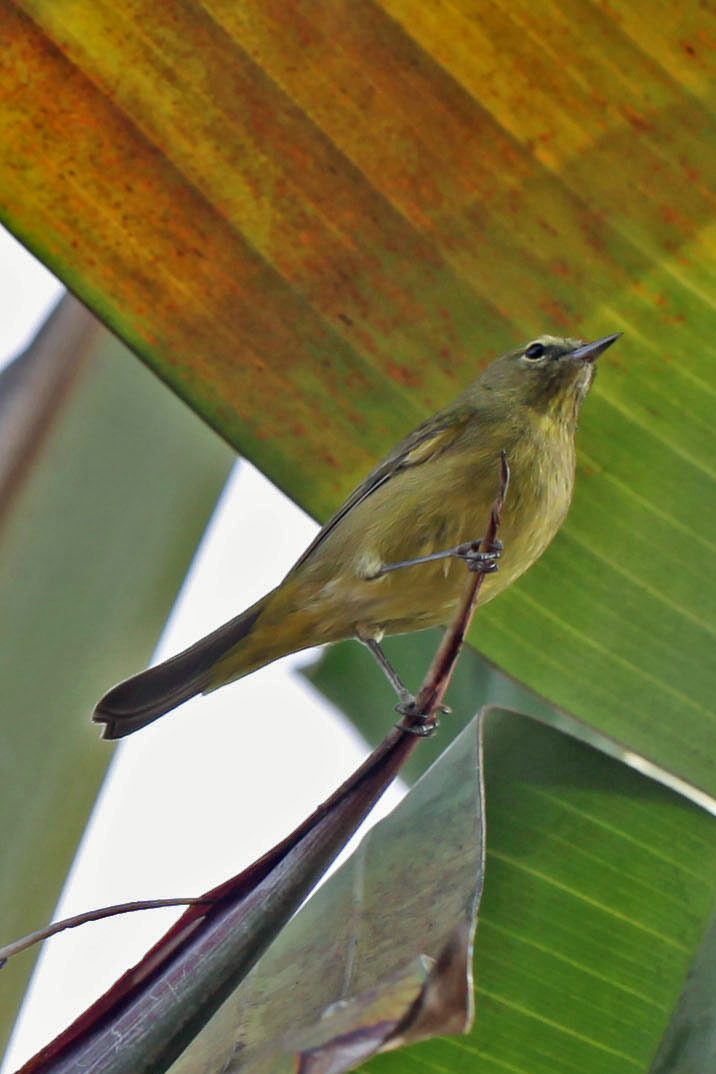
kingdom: Animalia
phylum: Chordata
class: Aves
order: Passeriformes
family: Parulidae
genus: Leiothlypis
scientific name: Leiothlypis celata
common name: Orange-crowned warbler
